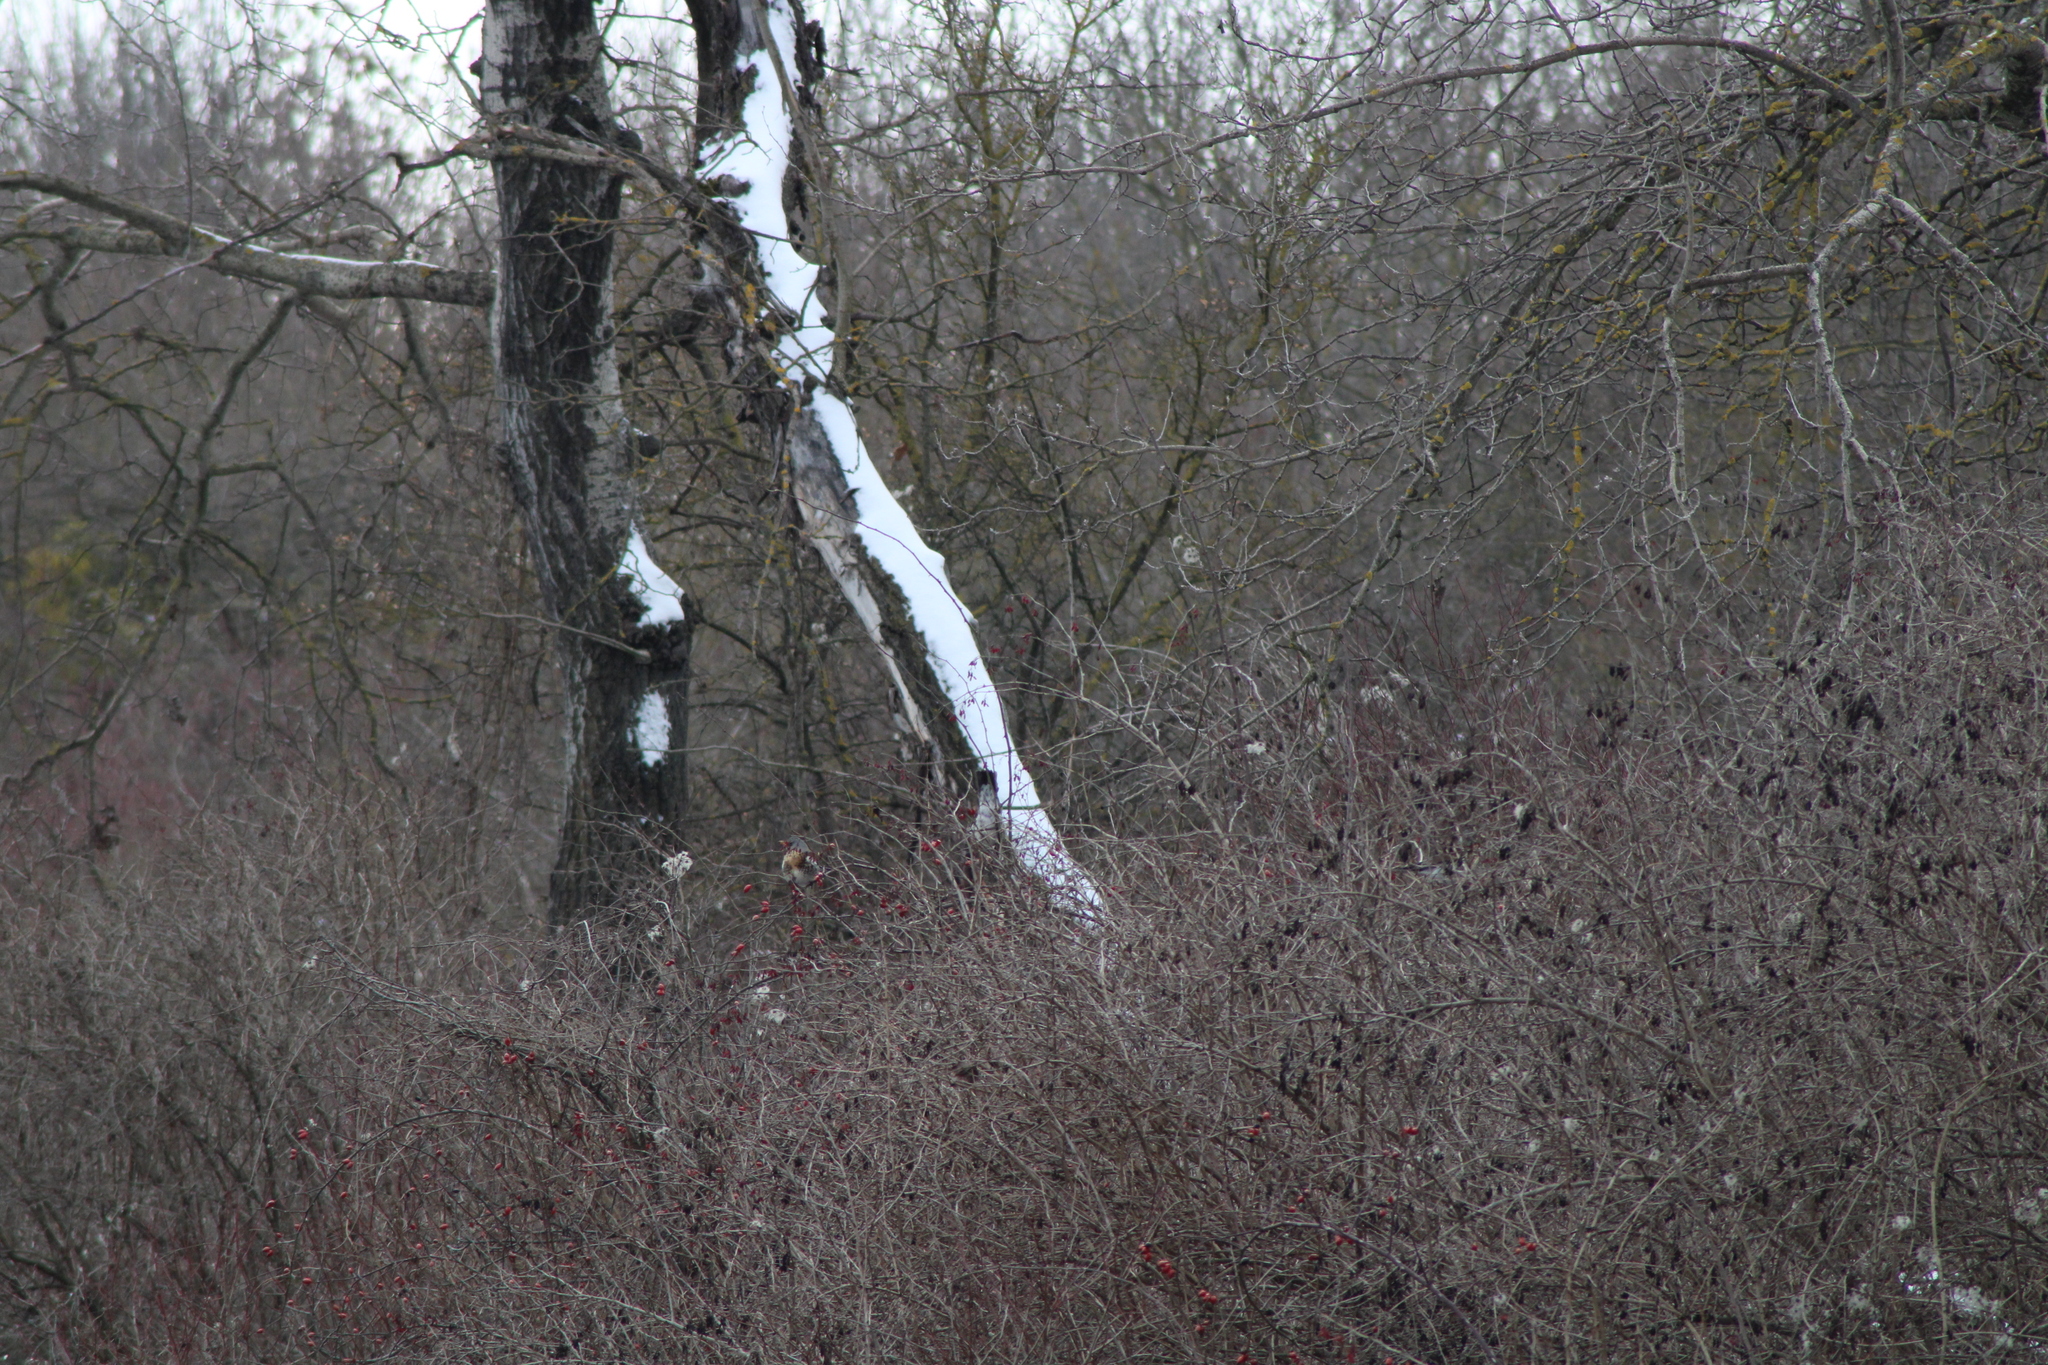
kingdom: Animalia
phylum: Chordata
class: Aves
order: Passeriformes
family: Turdidae
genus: Turdus
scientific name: Turdus pilaris
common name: Fieldfare
